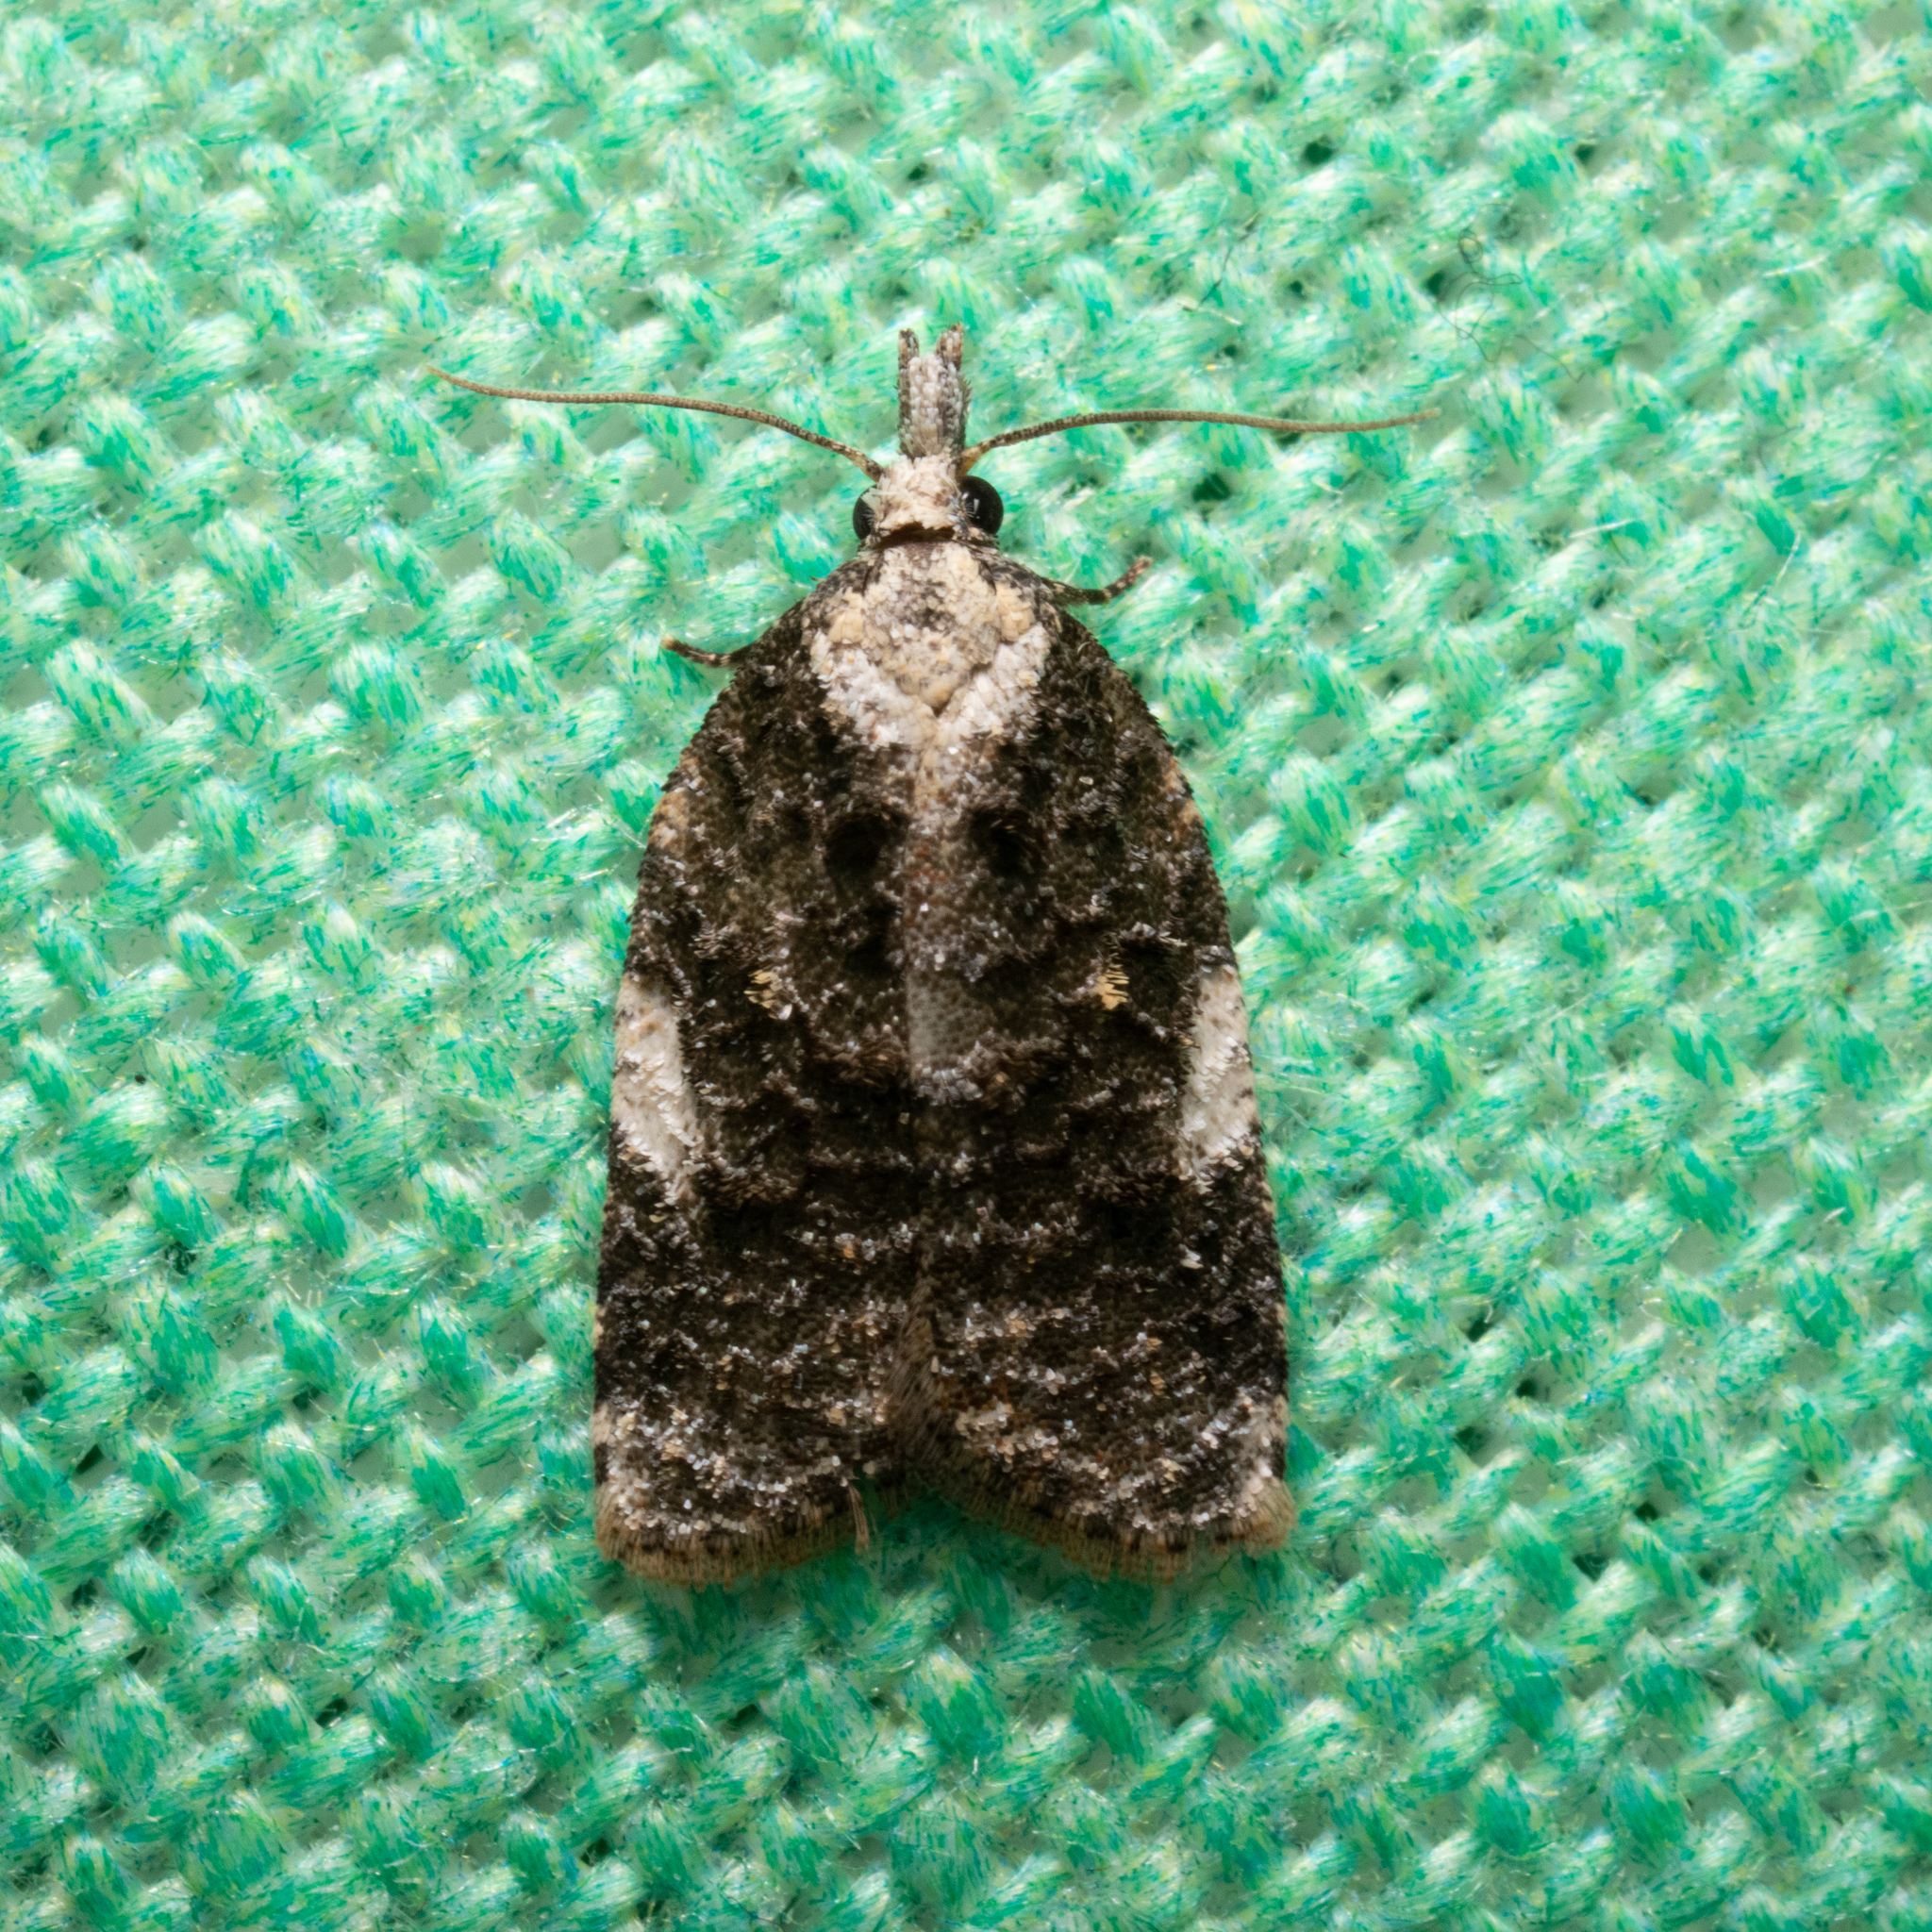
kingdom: Animalia
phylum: Arthropoda
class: Insecta
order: Lepidoptera
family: Tortricidae
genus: Platynota
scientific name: Platynota exasperatana
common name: Exasperating platynota moth
